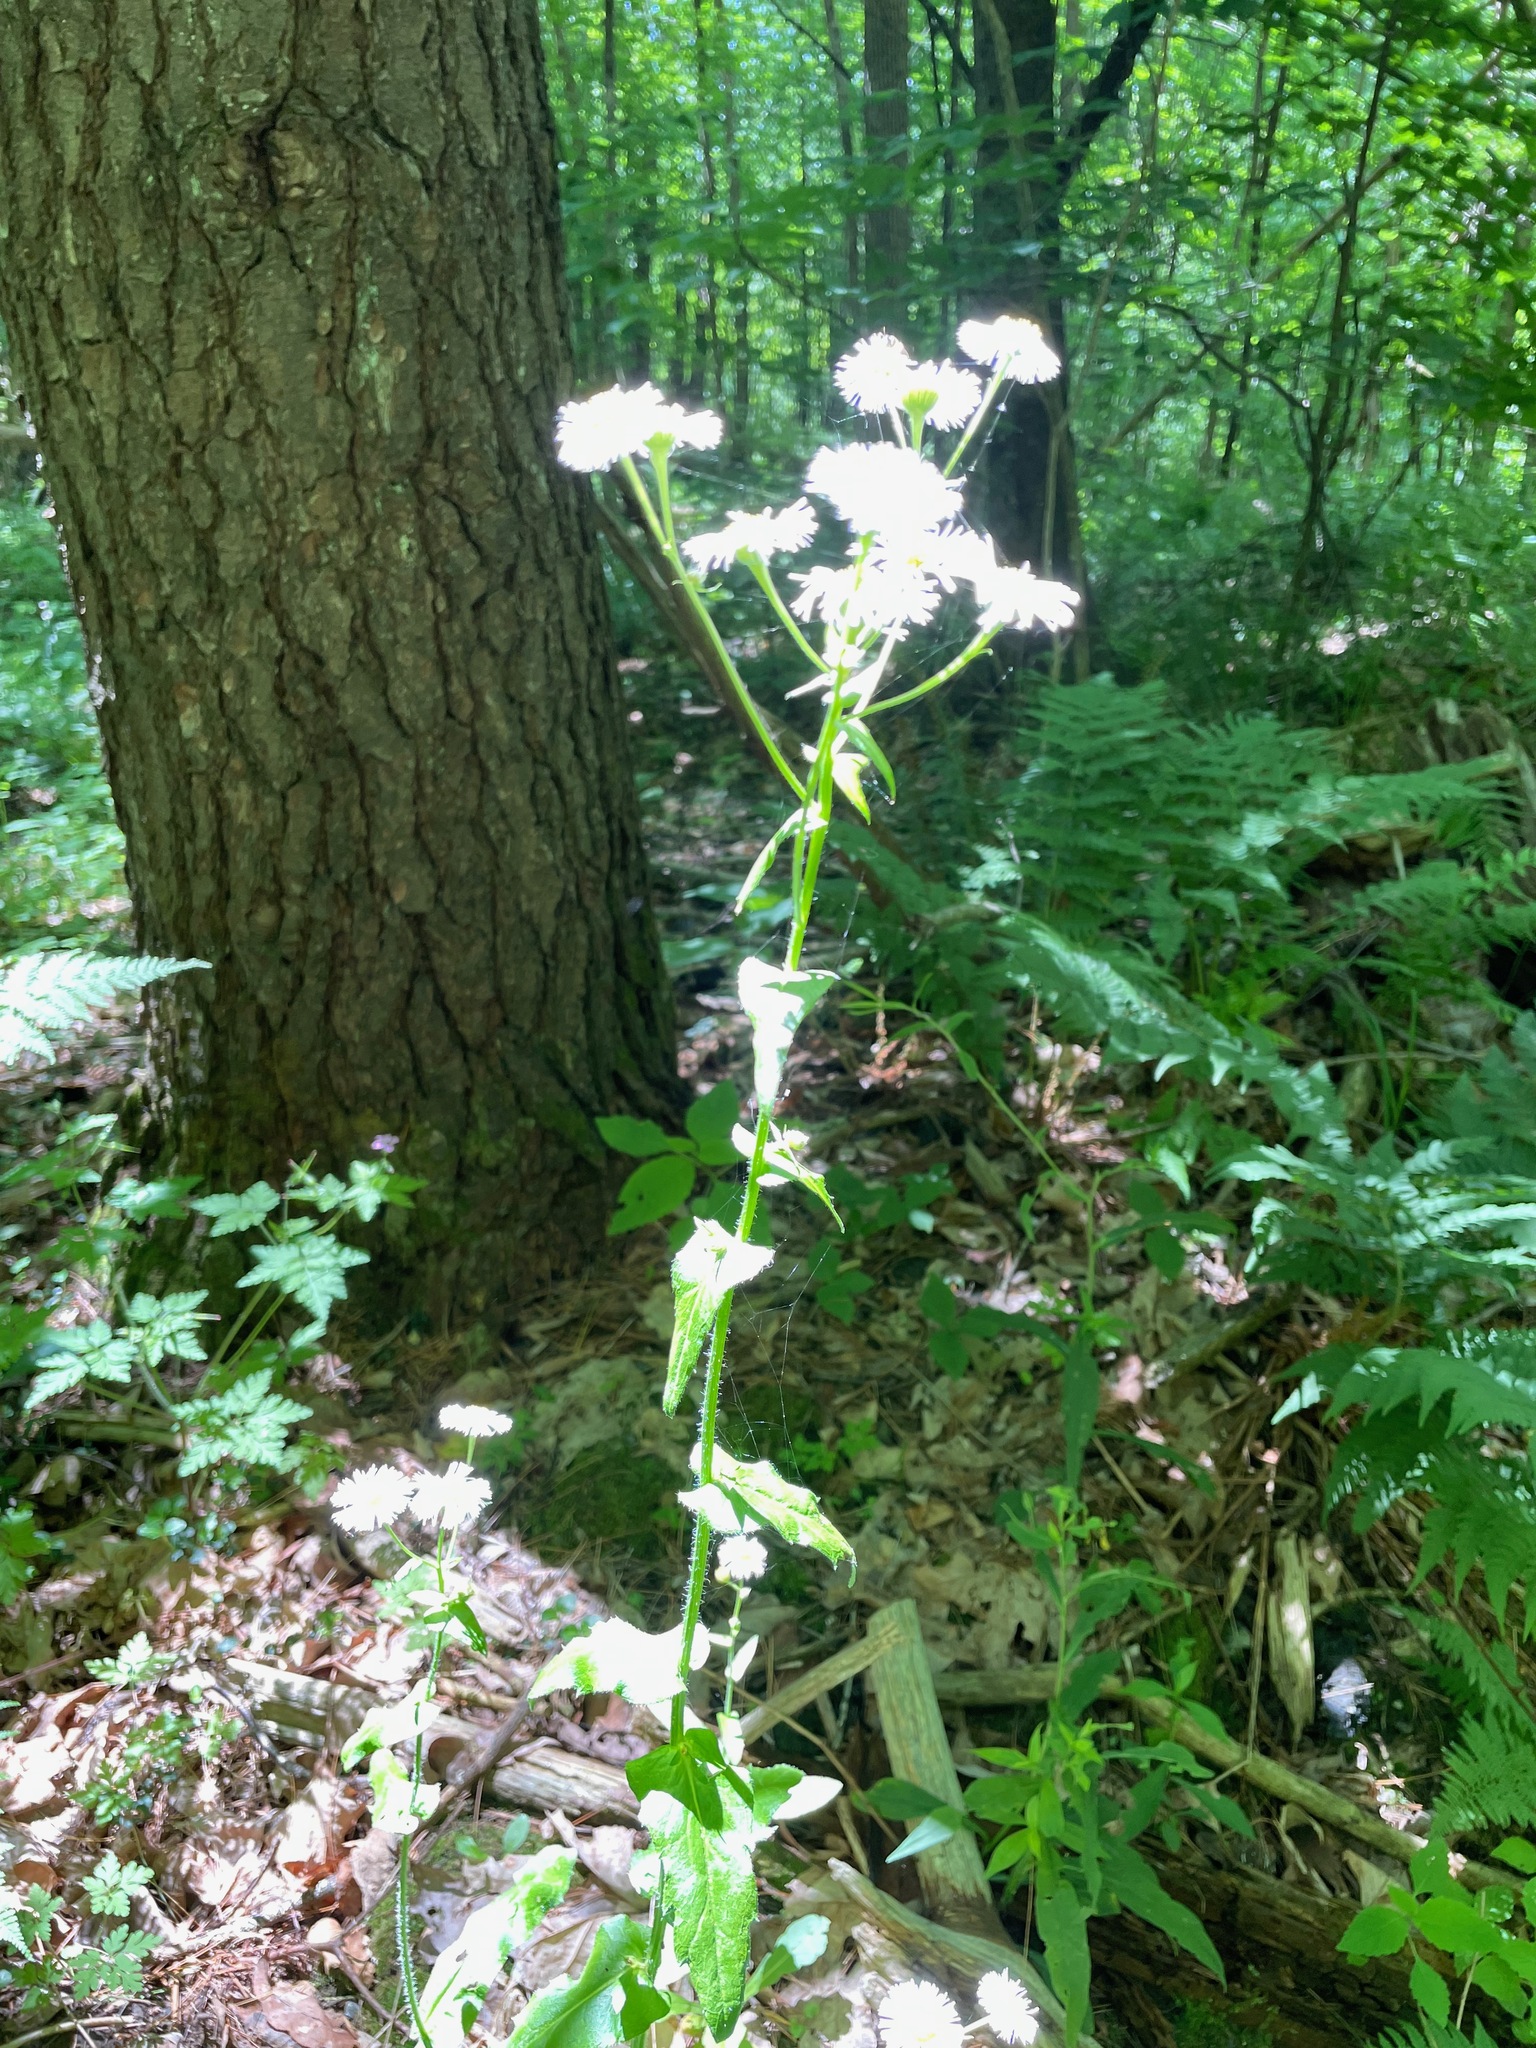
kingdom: Plantae
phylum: Tracheophyta
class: Magnoliopsida
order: Asterales
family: Asteraceae
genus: Erigeron
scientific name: Erigeron philadelphicus
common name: Robin's-plantain
